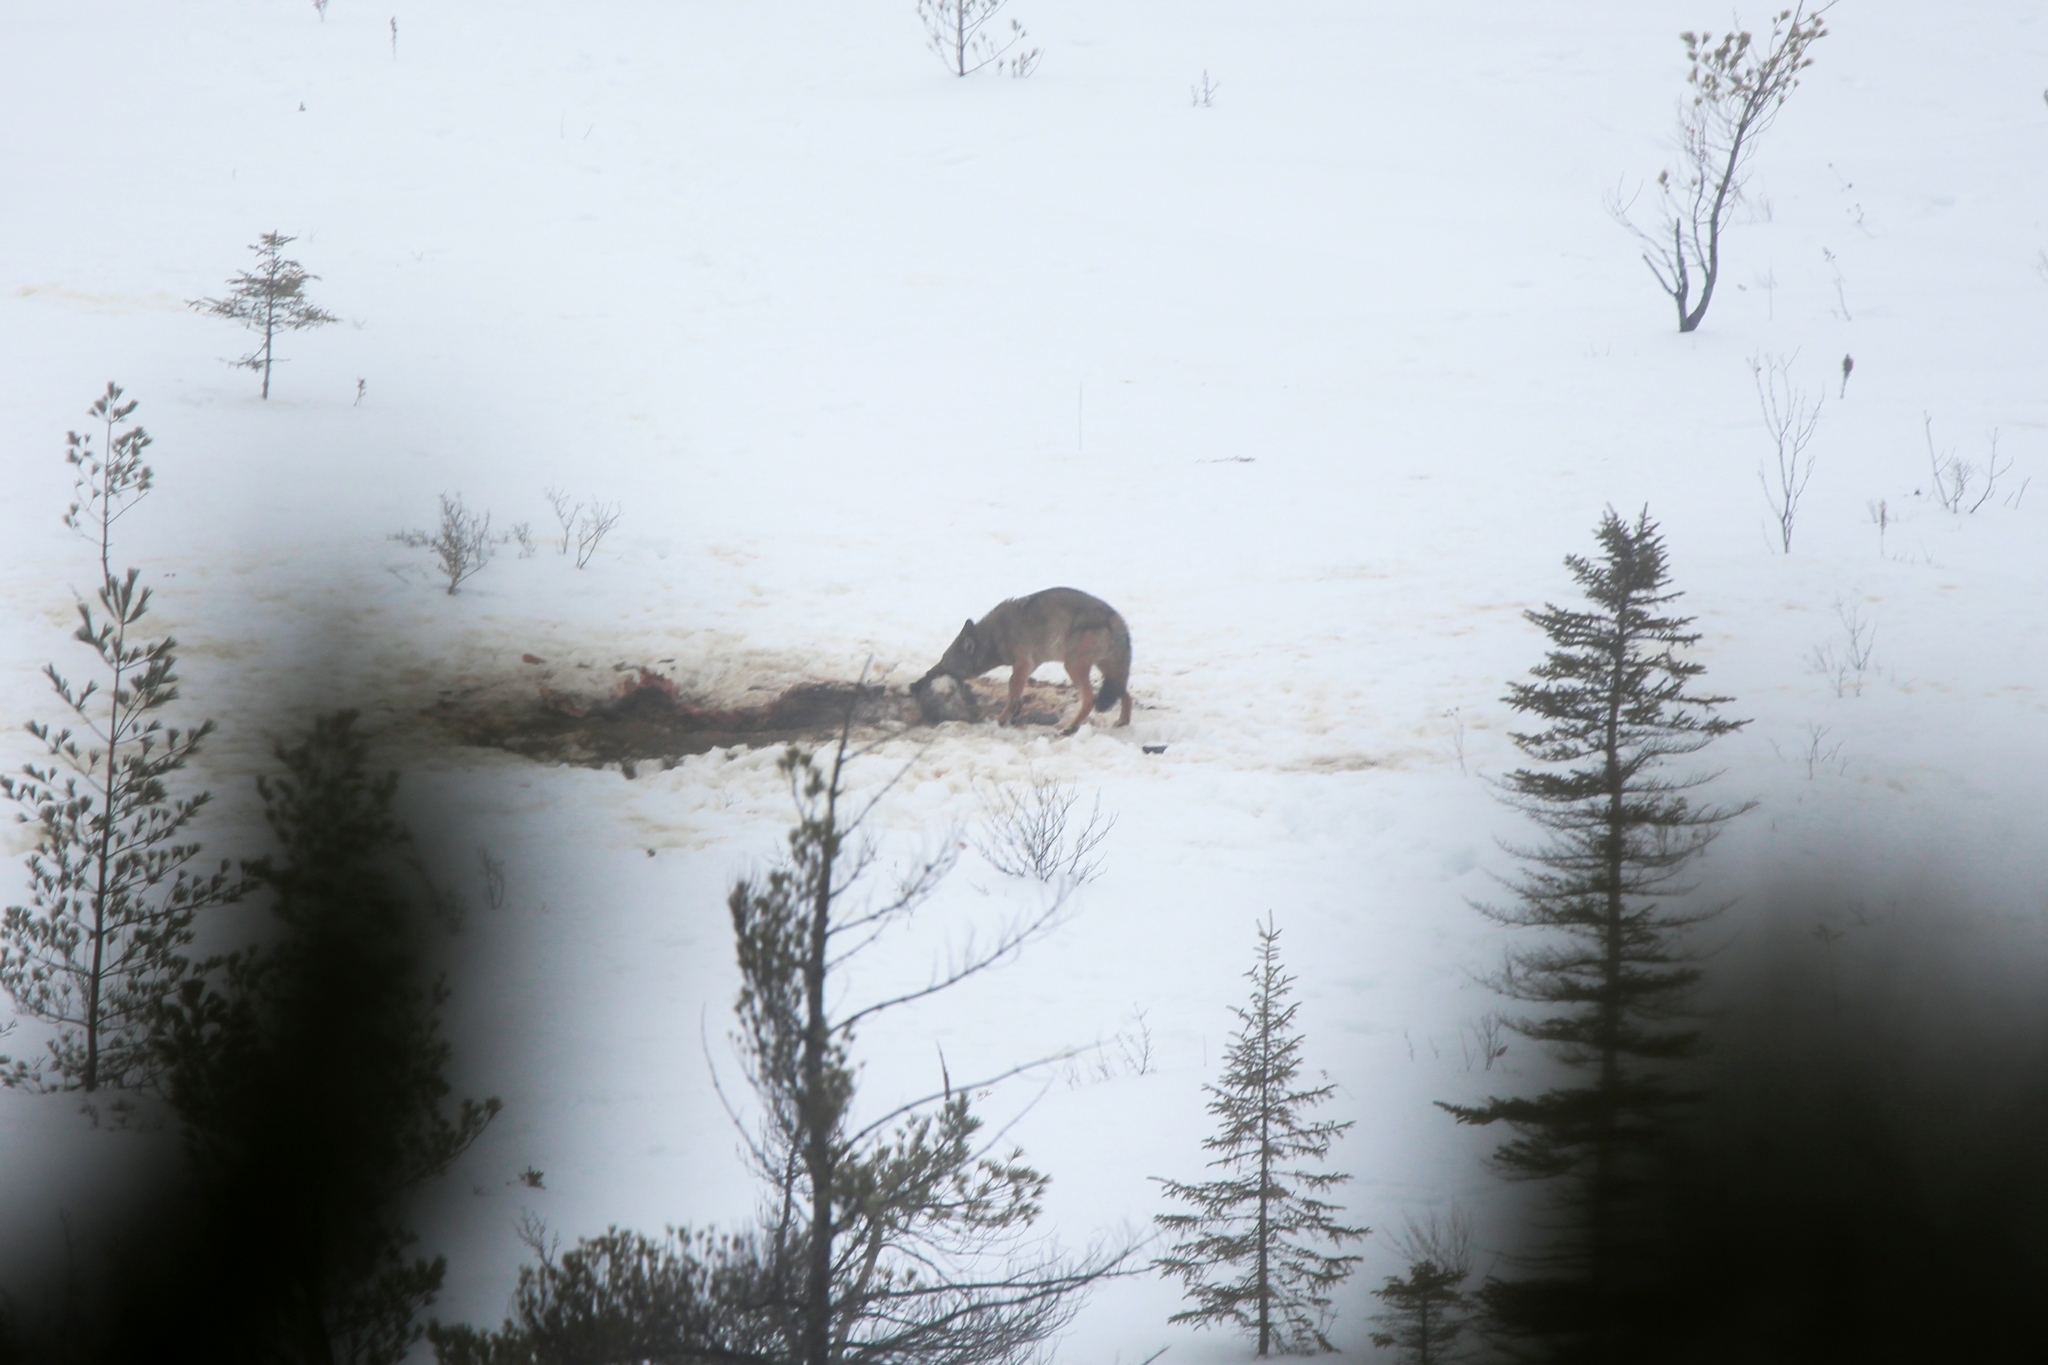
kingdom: Animalia
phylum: Chordata
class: Mammalia
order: Carnivora
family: Canidae
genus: Canis
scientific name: Canis lycaon
